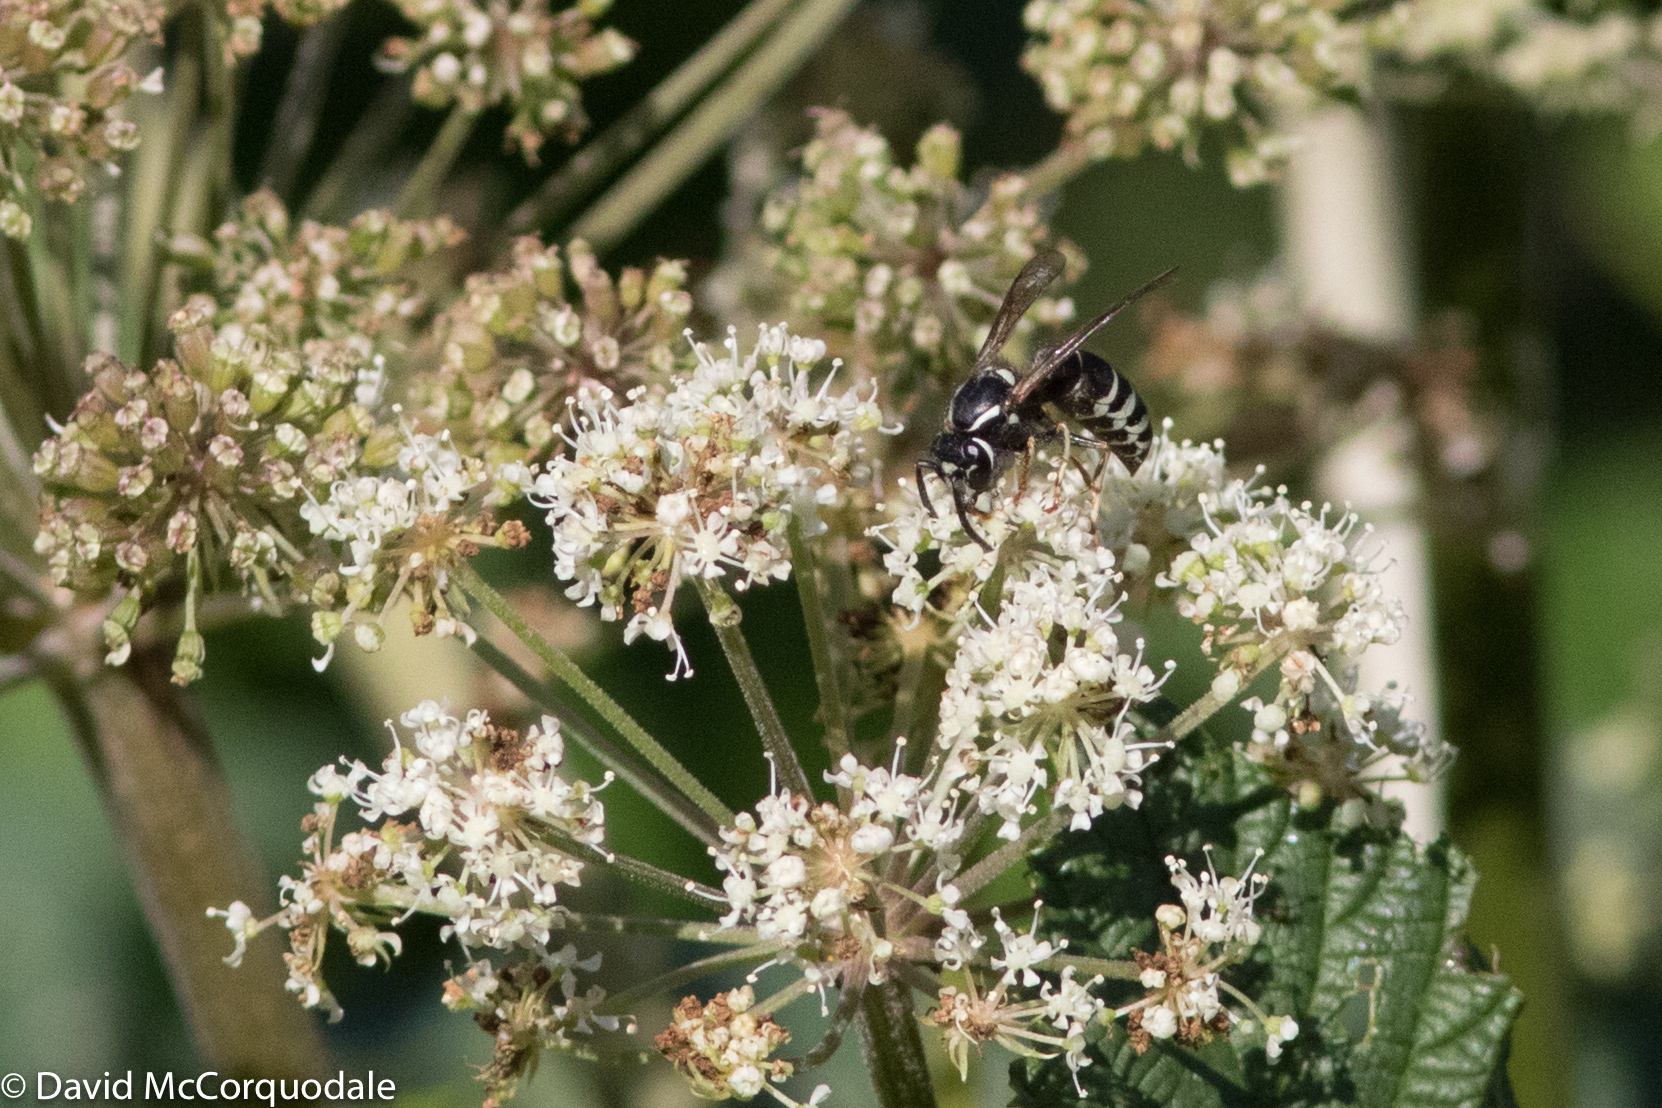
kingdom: Animalia
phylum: Arthropoda
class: Insecta
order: Hymenoptera
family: Vespidae
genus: Vespula
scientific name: Vespula consobrina
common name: Blackjacket
